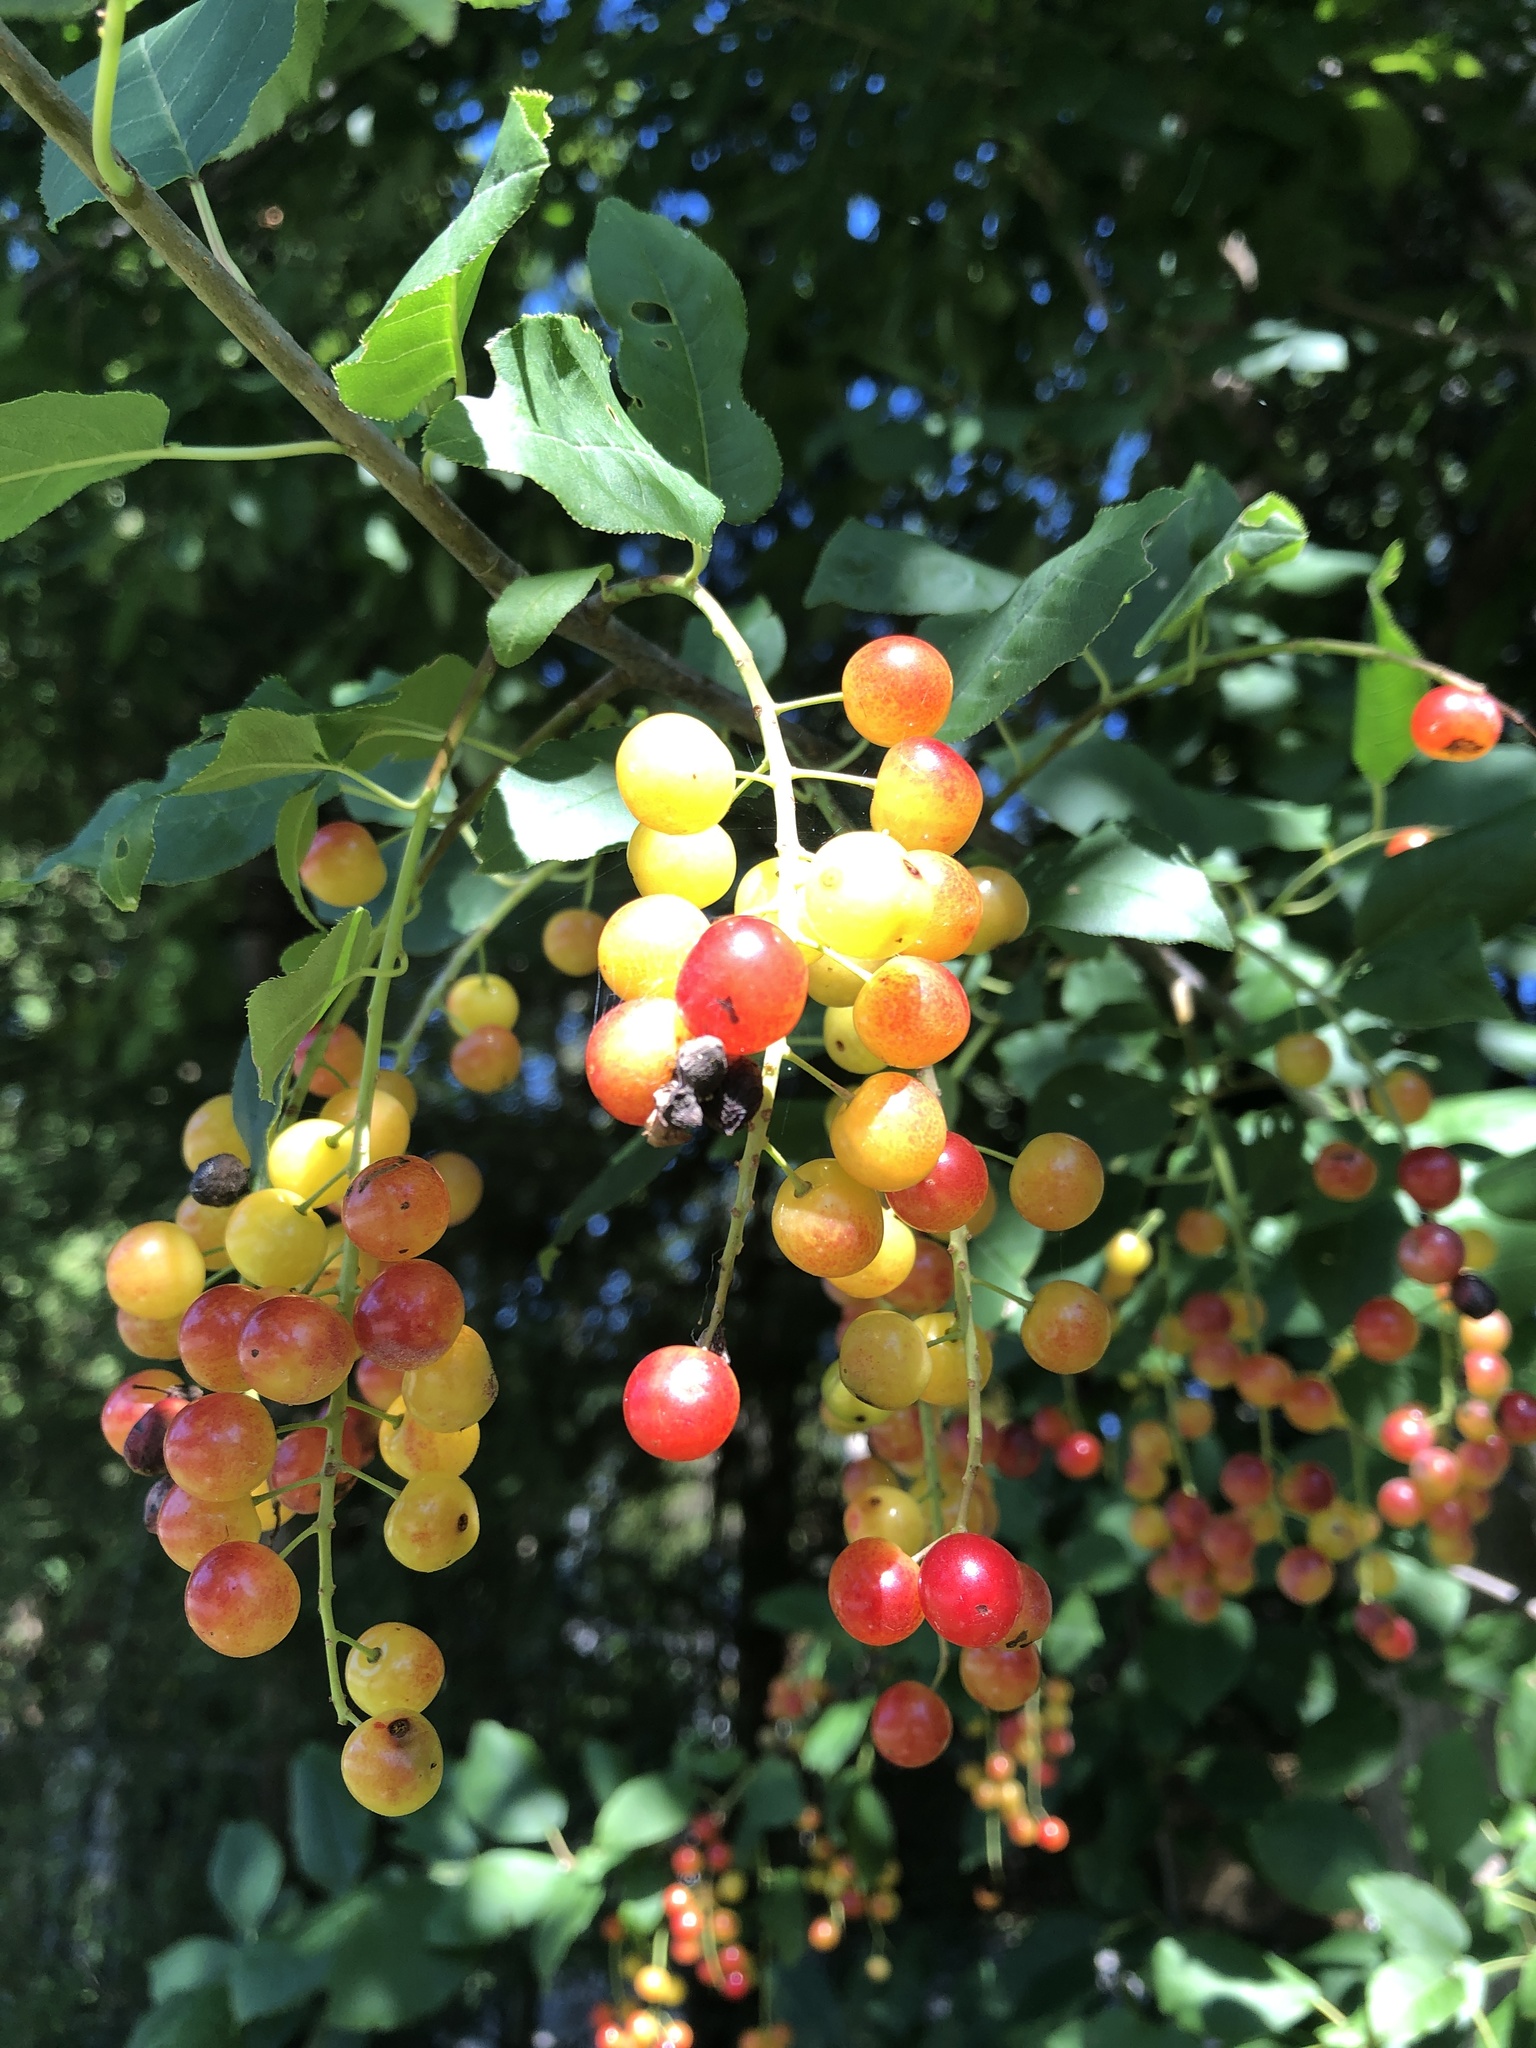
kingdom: Plantae
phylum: Tracheophyta
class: Magnoliopsida
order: Rosales
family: Rosaceae
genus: Prunus
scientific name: Prunus virginiana
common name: Chokecherry
